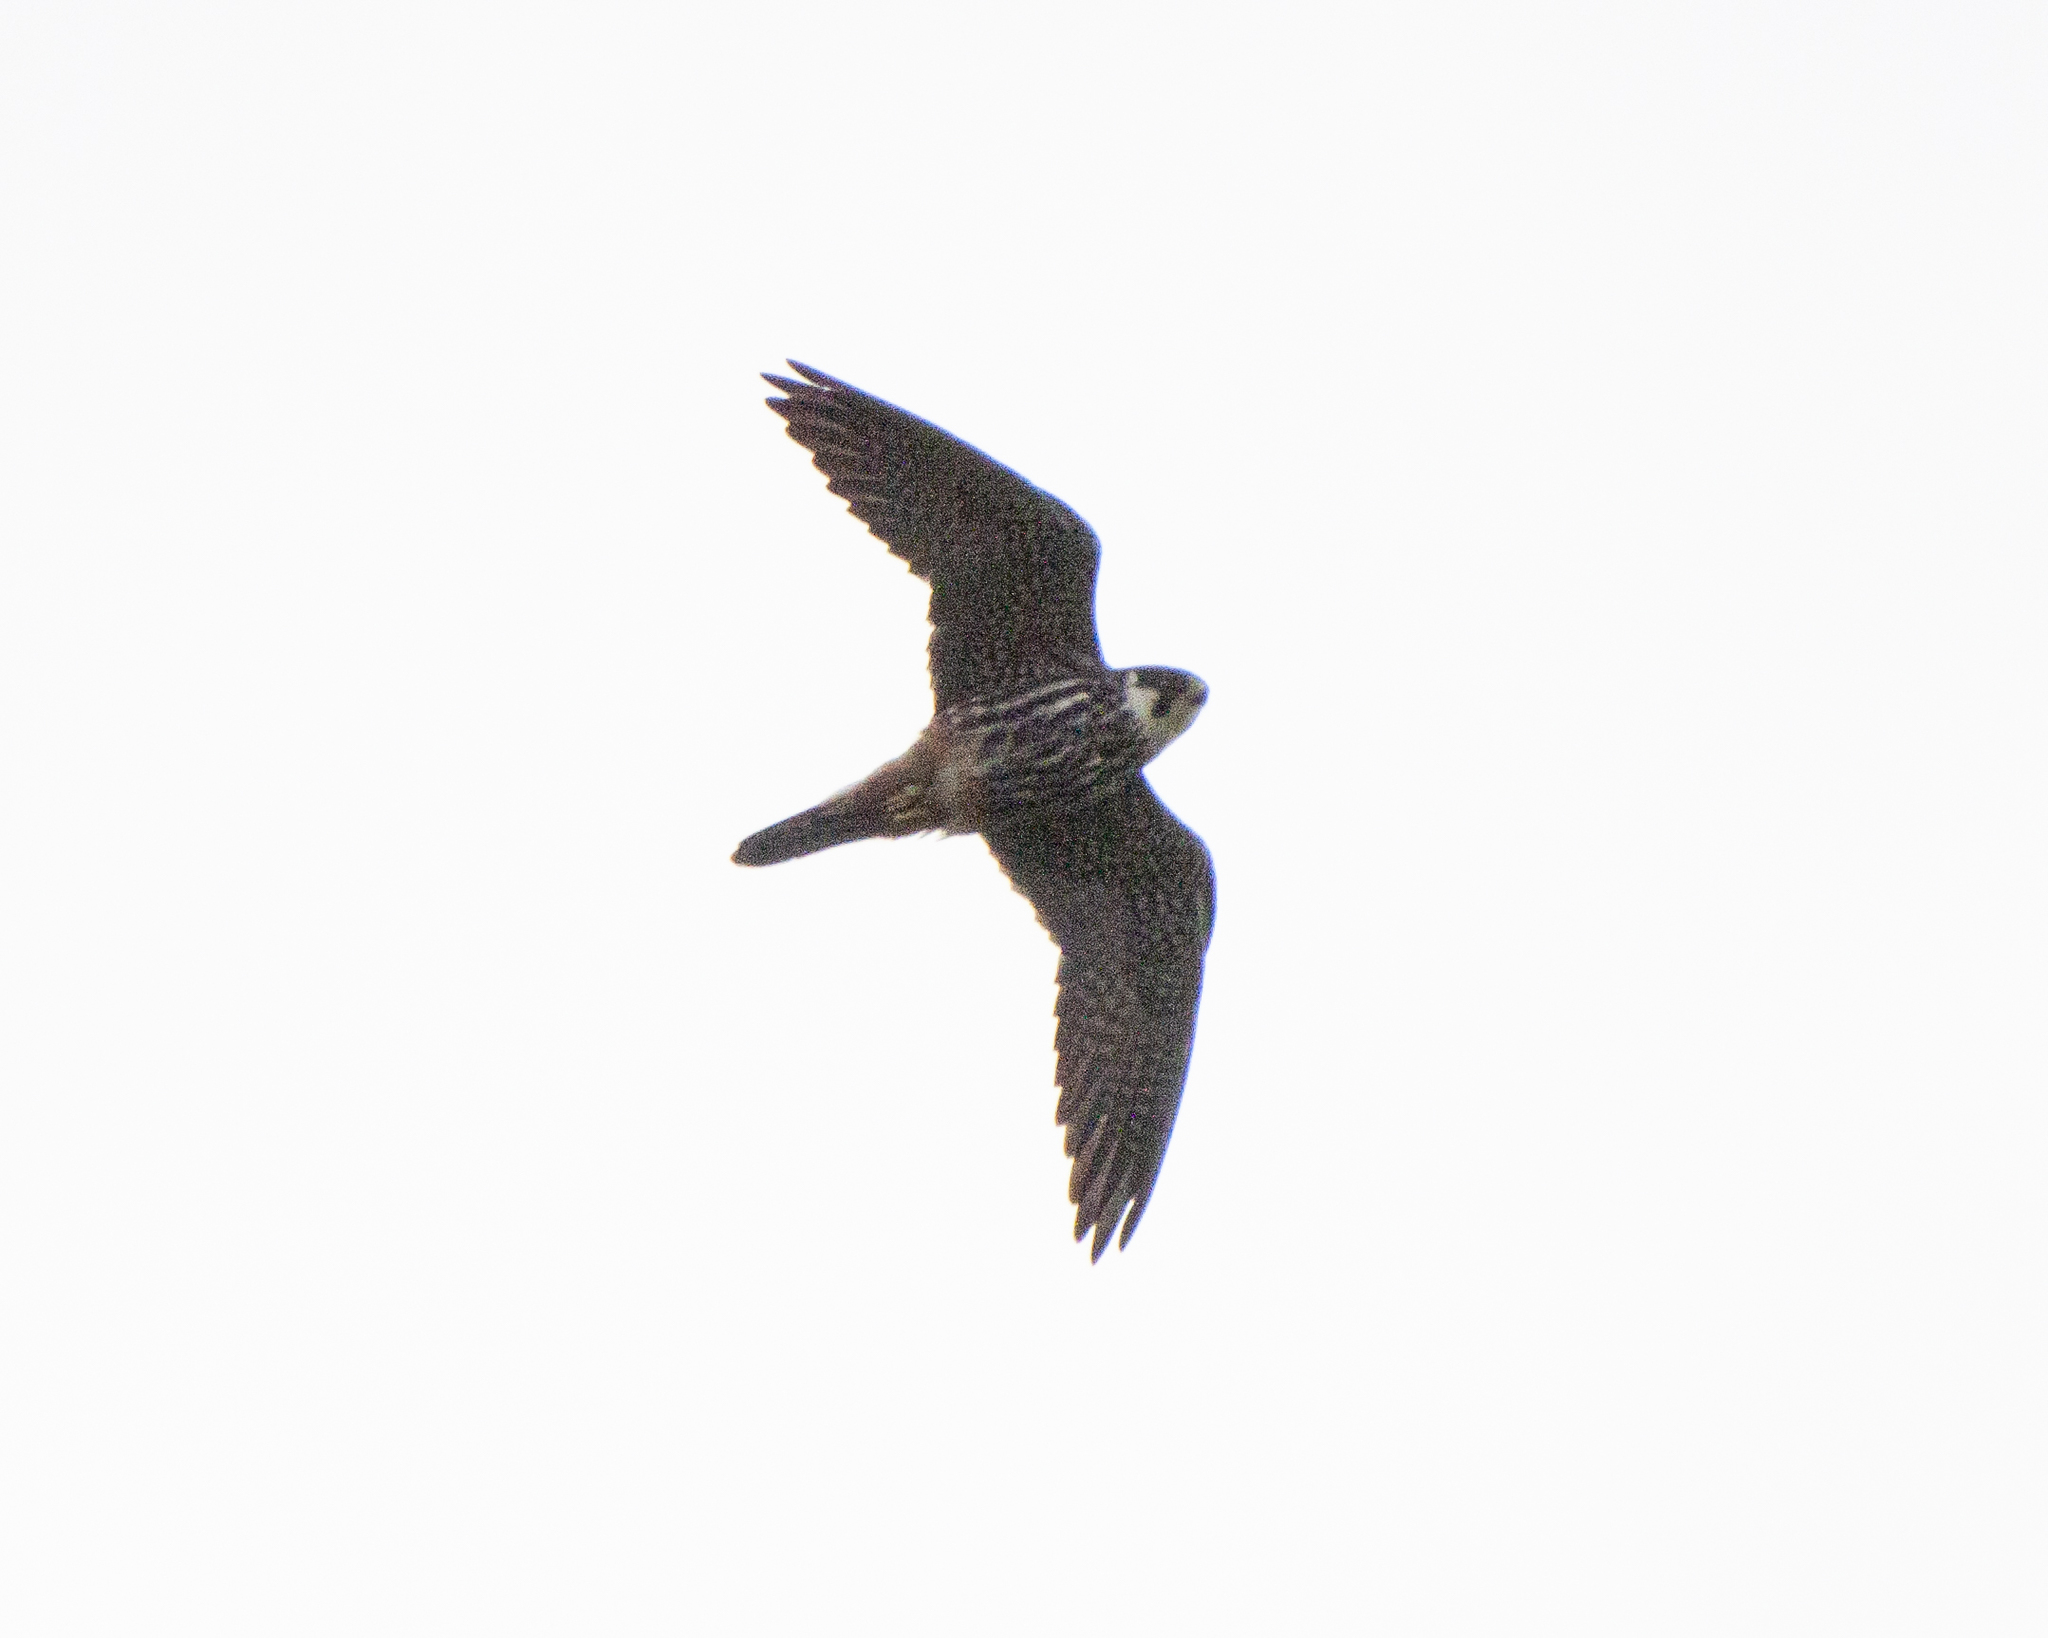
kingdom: Animalia
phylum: Chordata
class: Aves
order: Falconiformes
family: Falconidae
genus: Falco
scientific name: Falco subbuteo
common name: Eurasian hobby
